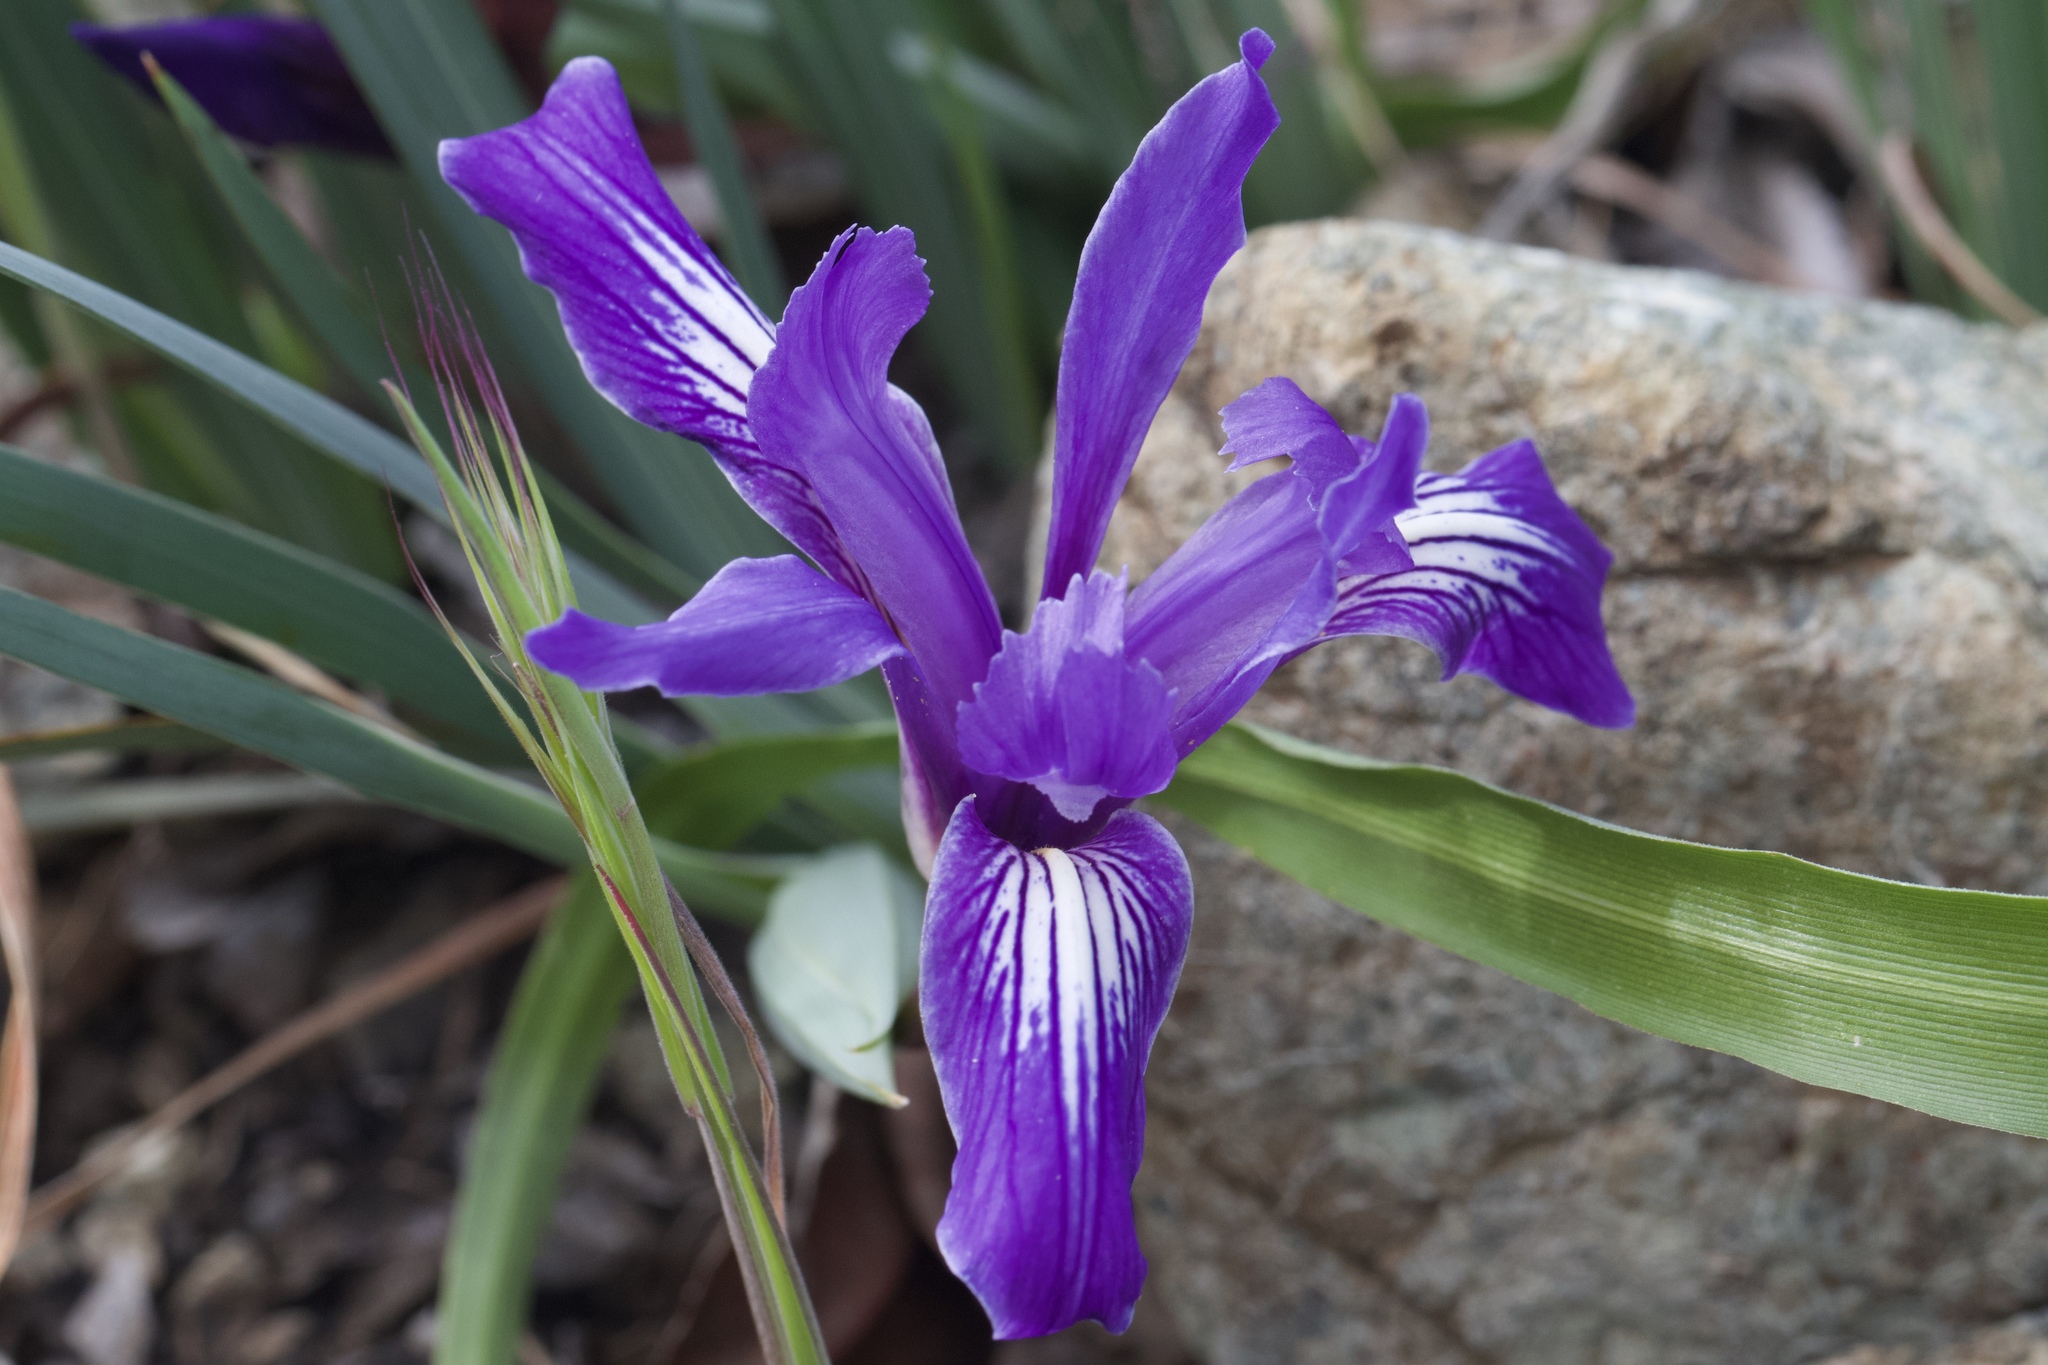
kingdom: Plantae
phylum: Tracheophyta
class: Liliopsida
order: Asparagales
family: Iridaceae
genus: Iris
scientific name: Iris macrosiphon
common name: Ground iris
